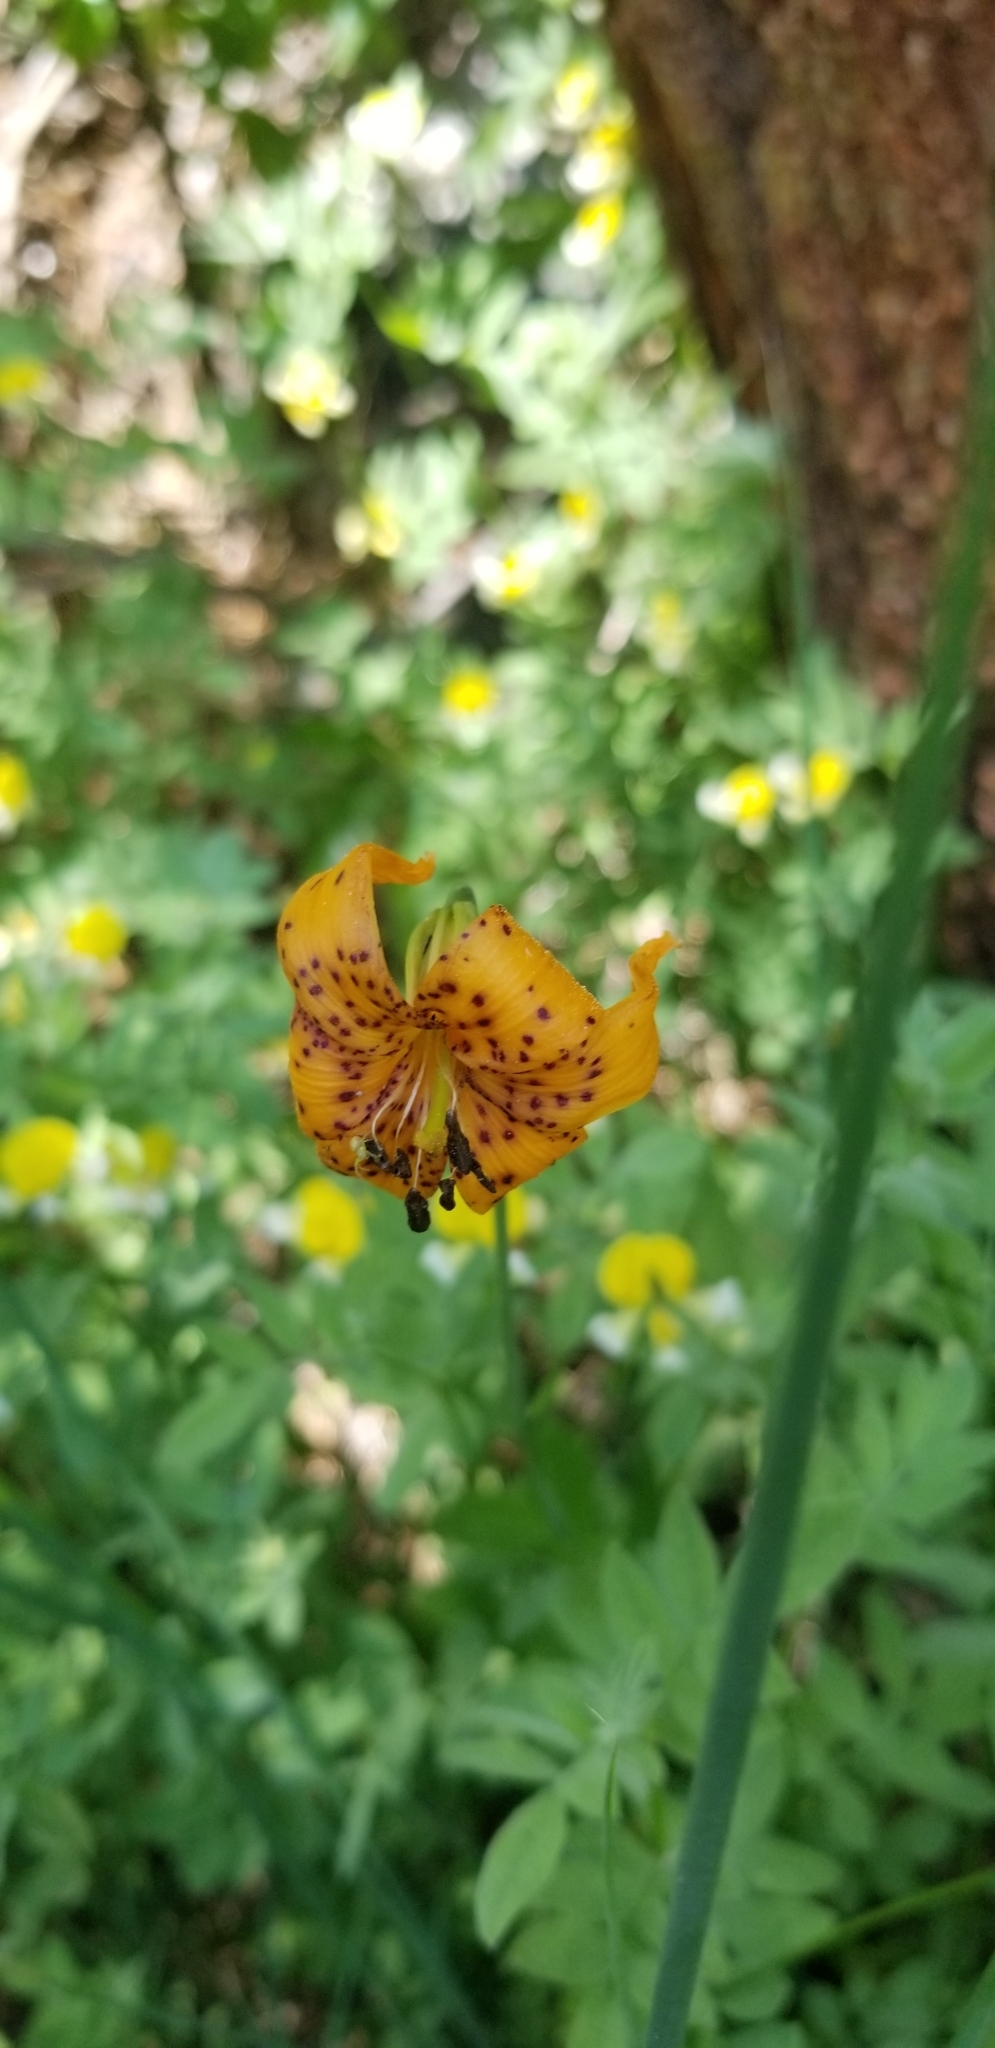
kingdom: Plantae
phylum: Tracheophyta
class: Liliopsida
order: Liliales
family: Liliaceae
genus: Lilium
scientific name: Lilium kelleyanum
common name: Kelley's lily
